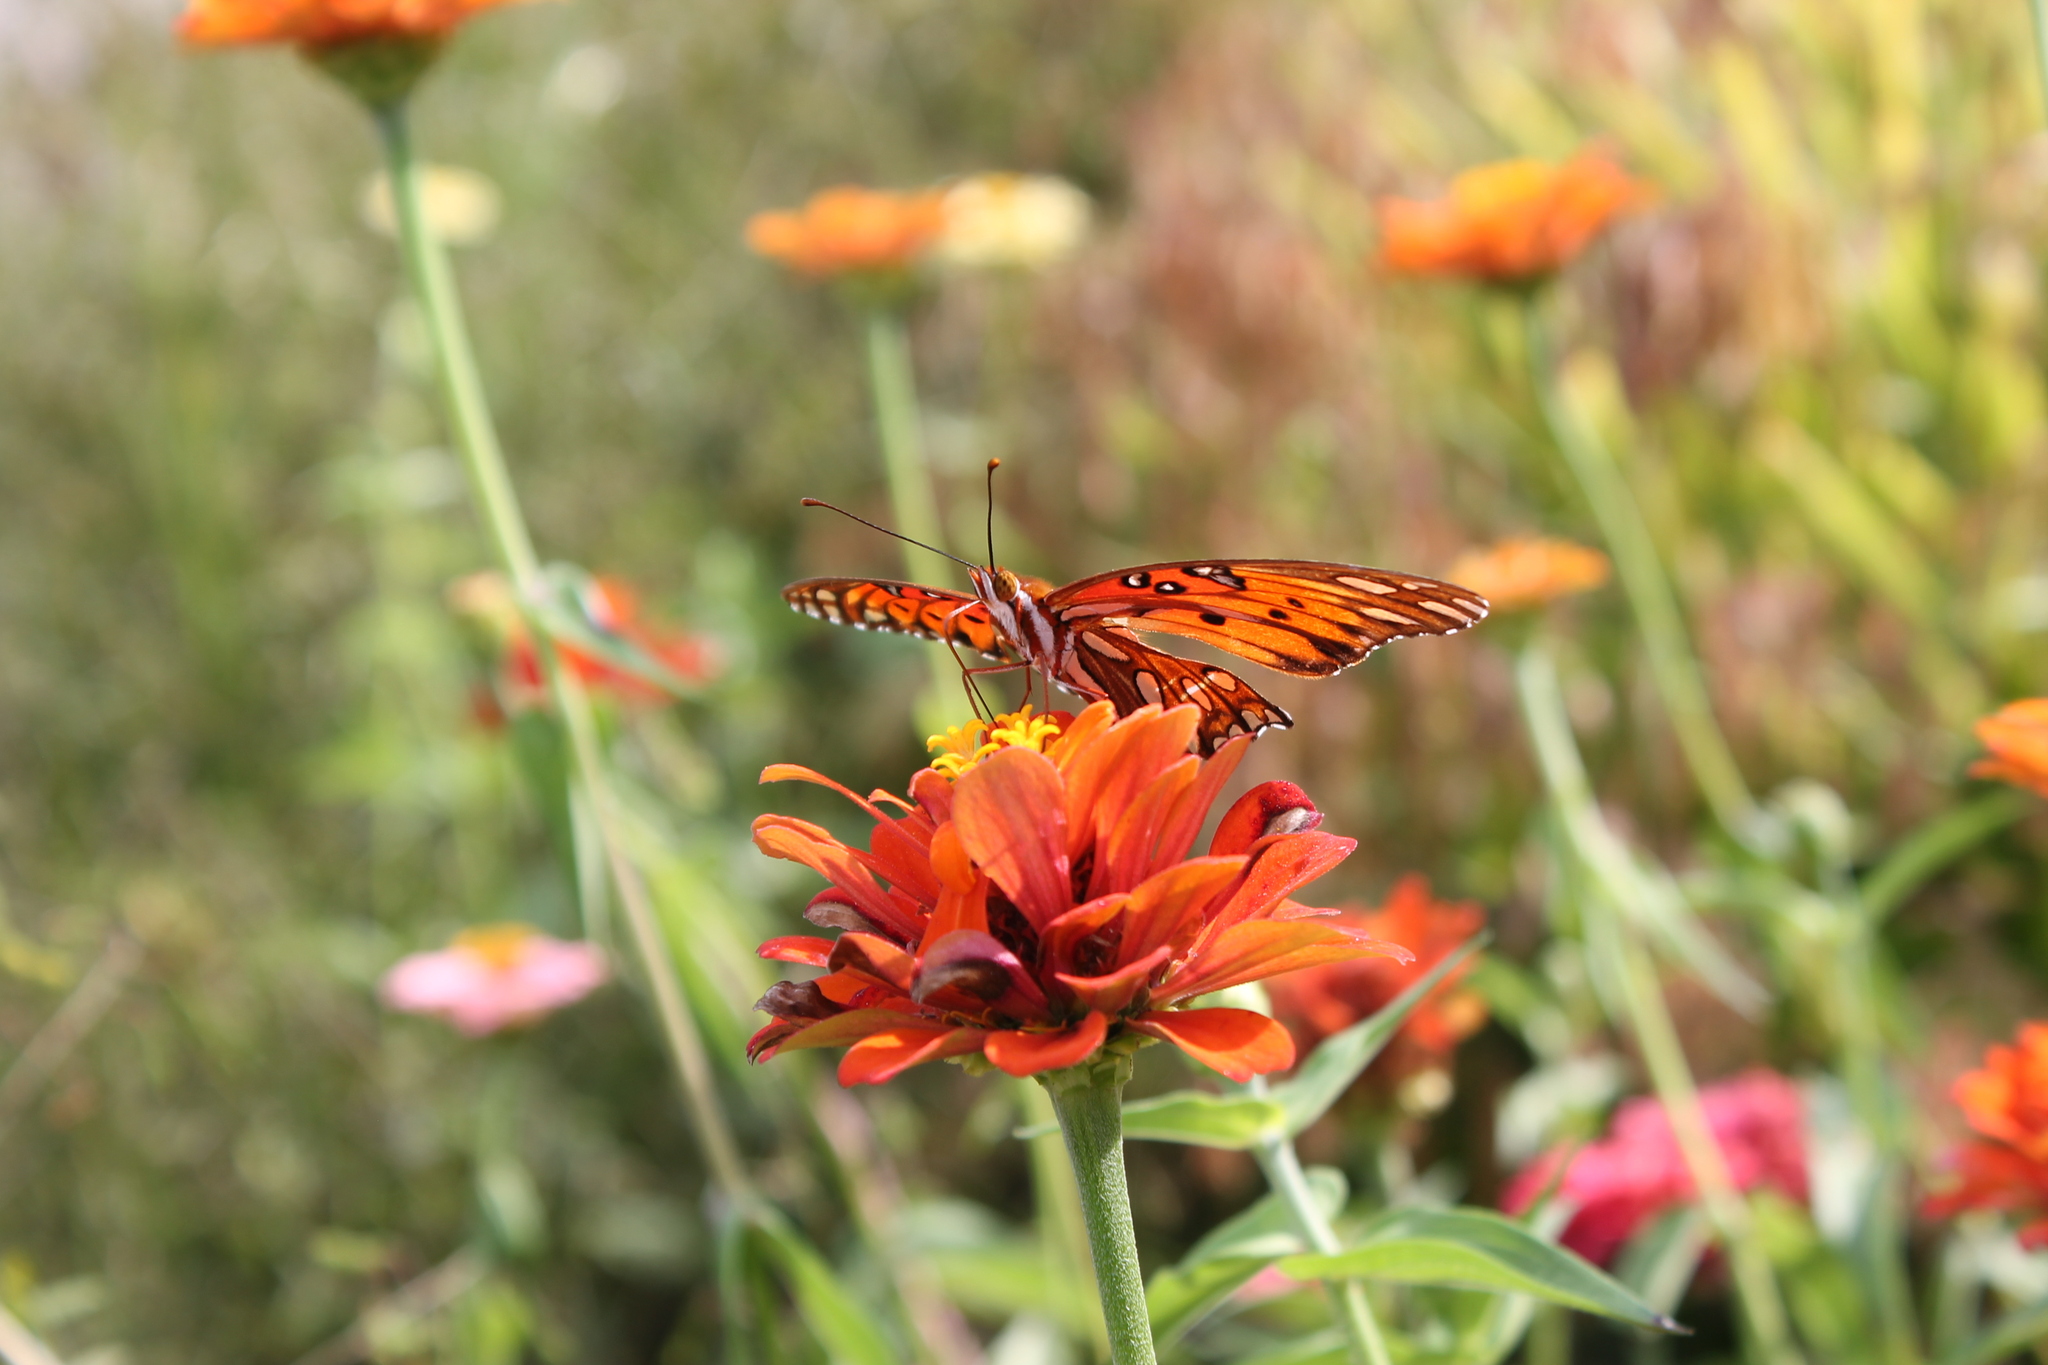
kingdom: Animalia
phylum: Arthropoda
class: Insecta
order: Lepidoptera
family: Nymphalidae
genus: Dione
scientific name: Dione vanillae
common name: Gulf fritillary
